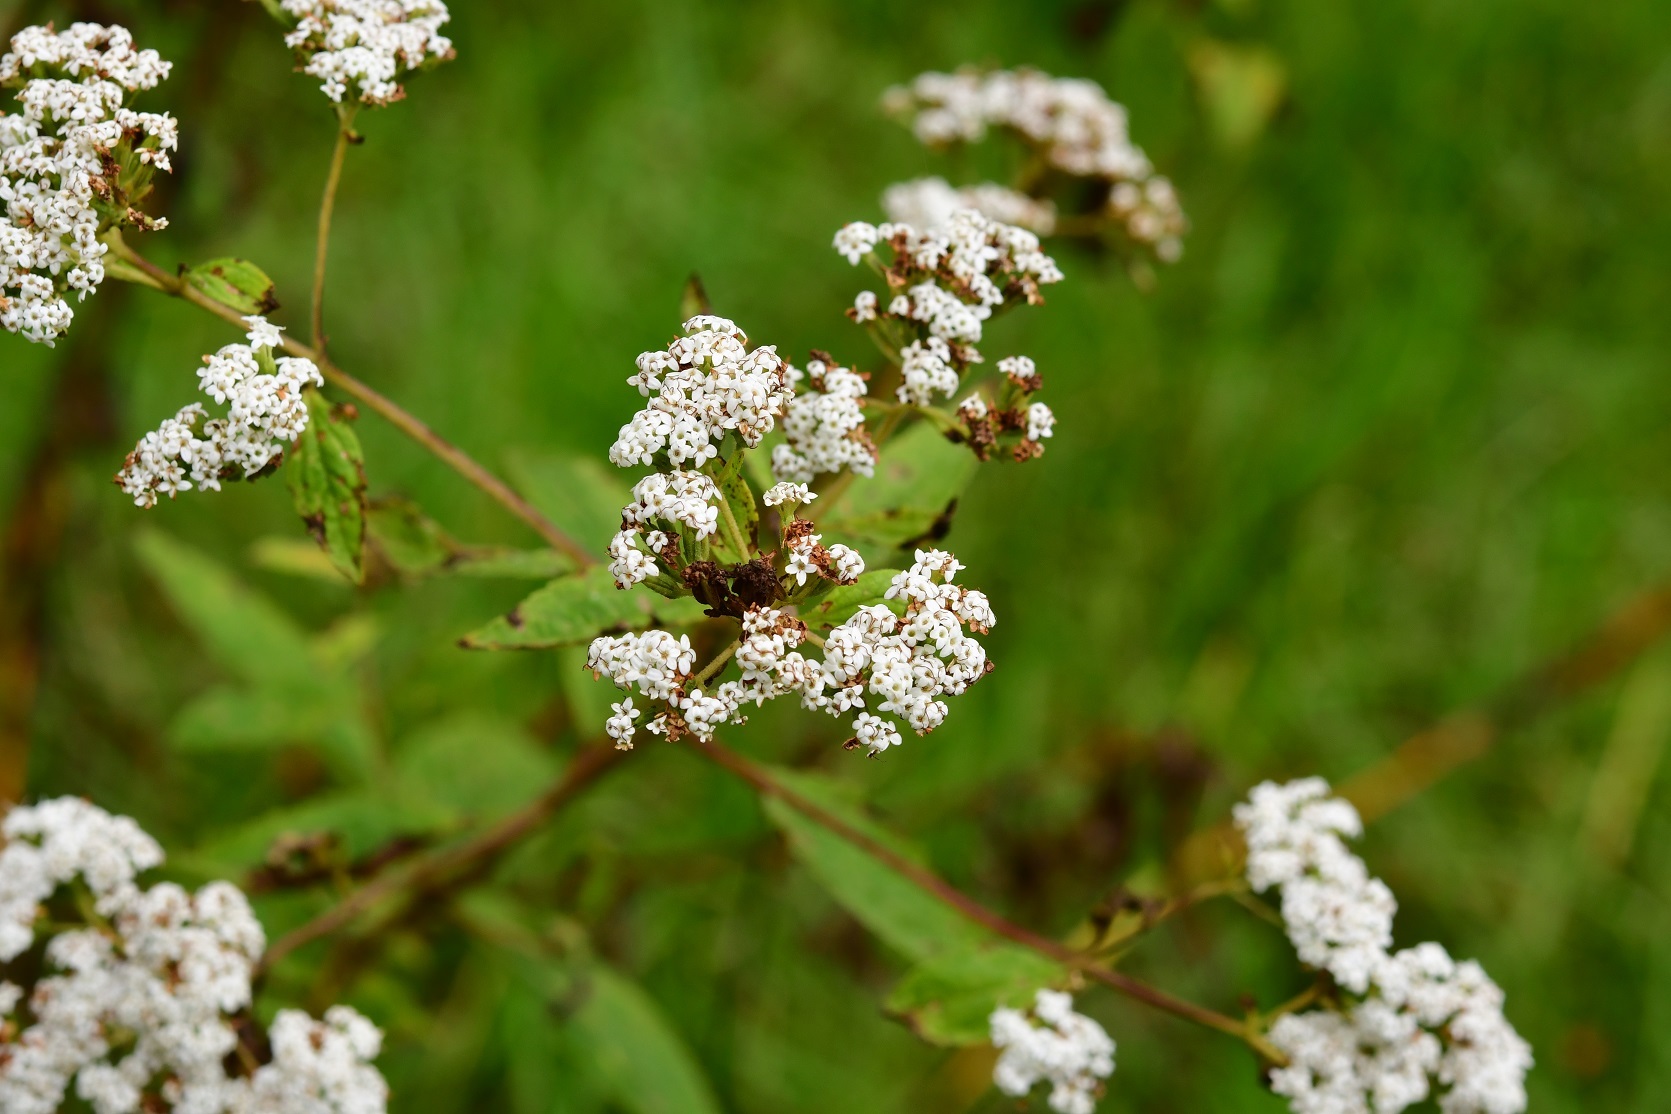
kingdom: Plantae
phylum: Tracheophyta
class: Magnoliopsida
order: Asterales
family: Asteraceae
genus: Stevia
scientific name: Stevia ovata
